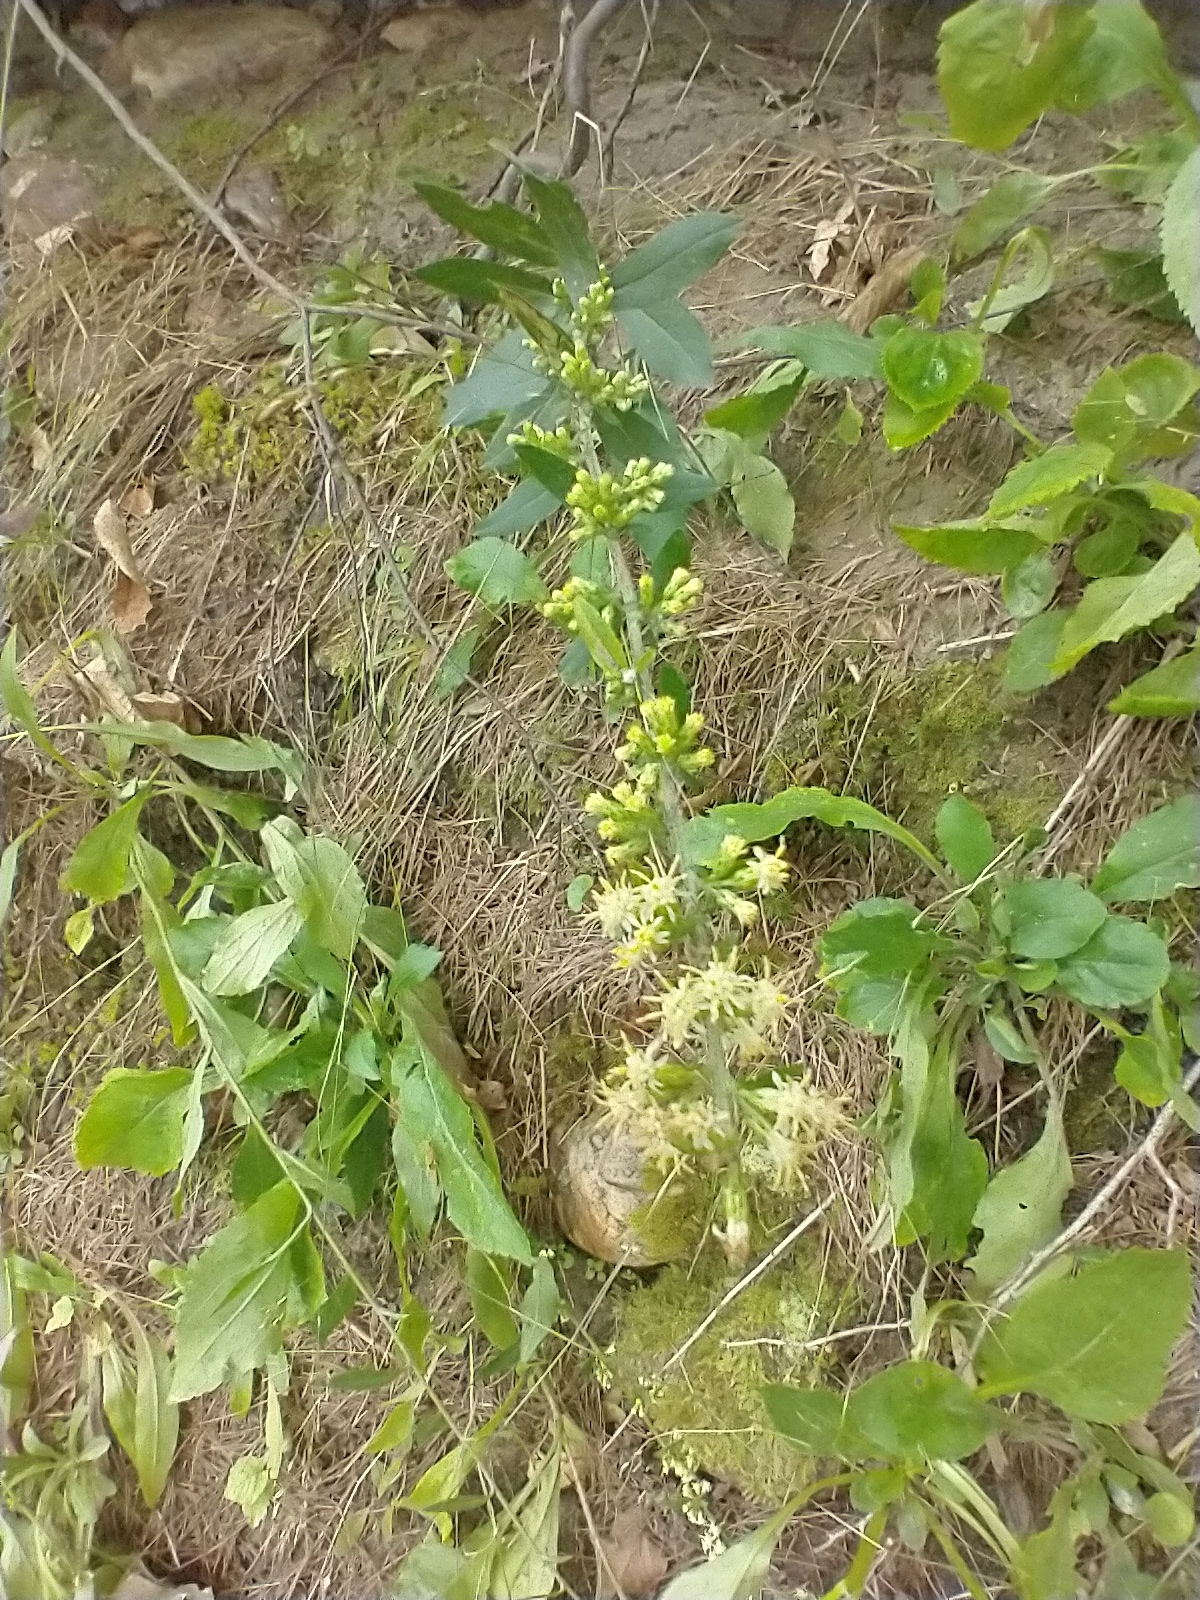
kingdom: Plantae
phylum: Tracheophyta
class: Magnoliopsida
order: Asterales
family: Asteraceae
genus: Solidago
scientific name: Solidago bicolor
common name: Silverrod
